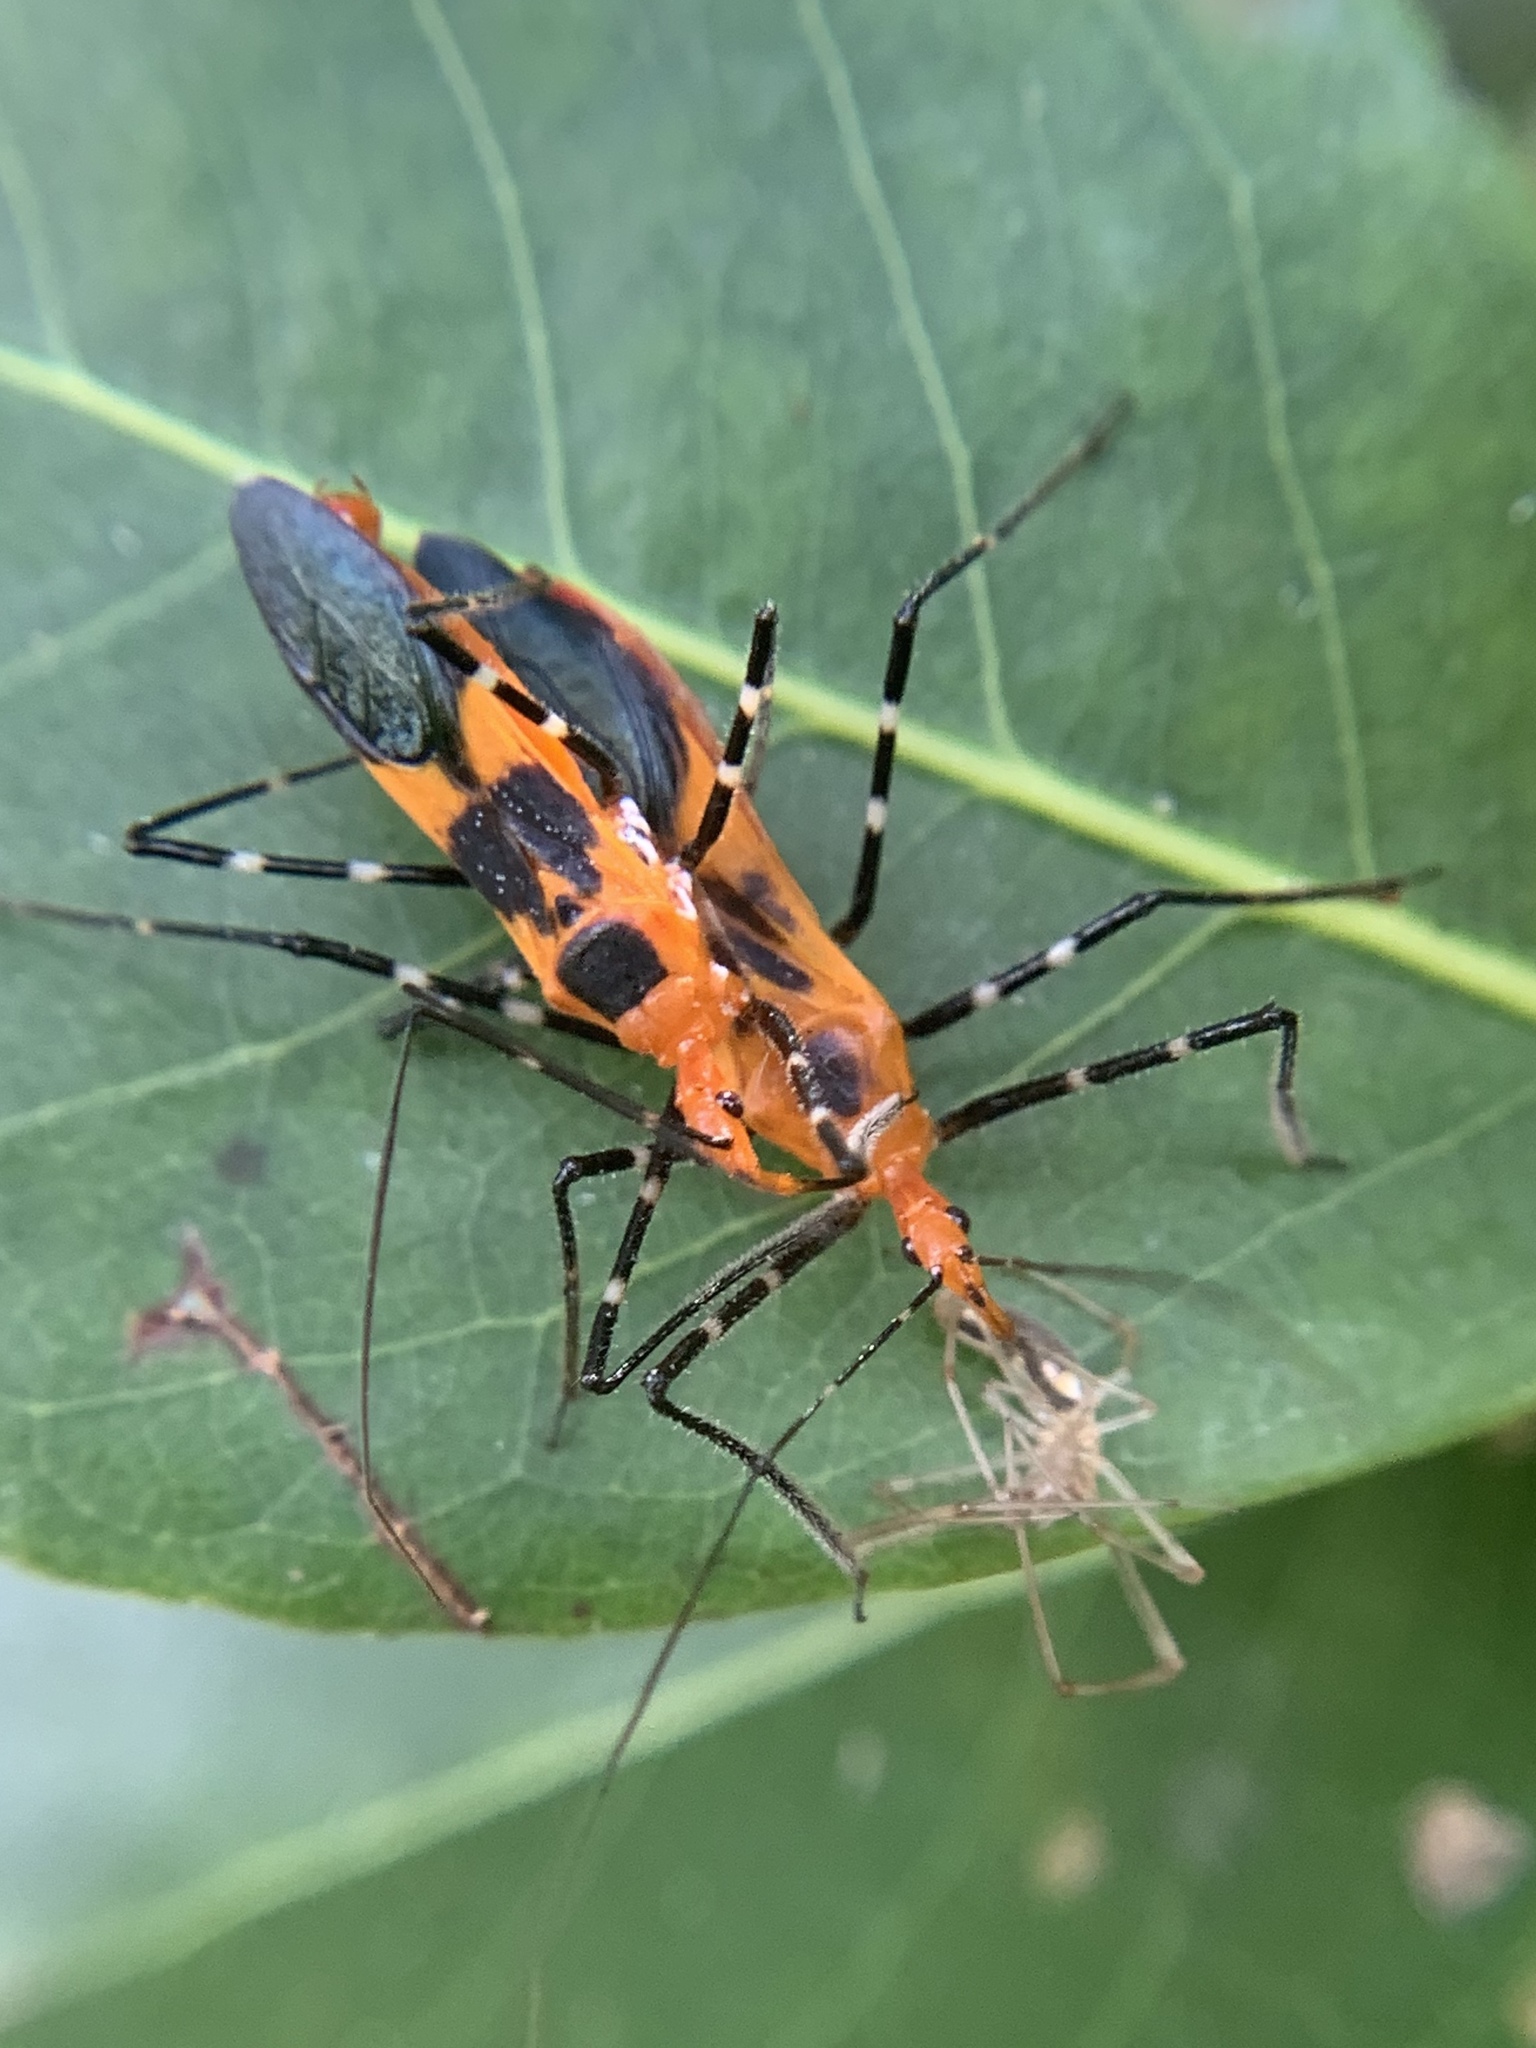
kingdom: Animalia
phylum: Arthropoda
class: Insecta
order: Hemiptera
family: Reduviidae
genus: Zelus
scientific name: Zelus longipes
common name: Milkweed assassin bug
